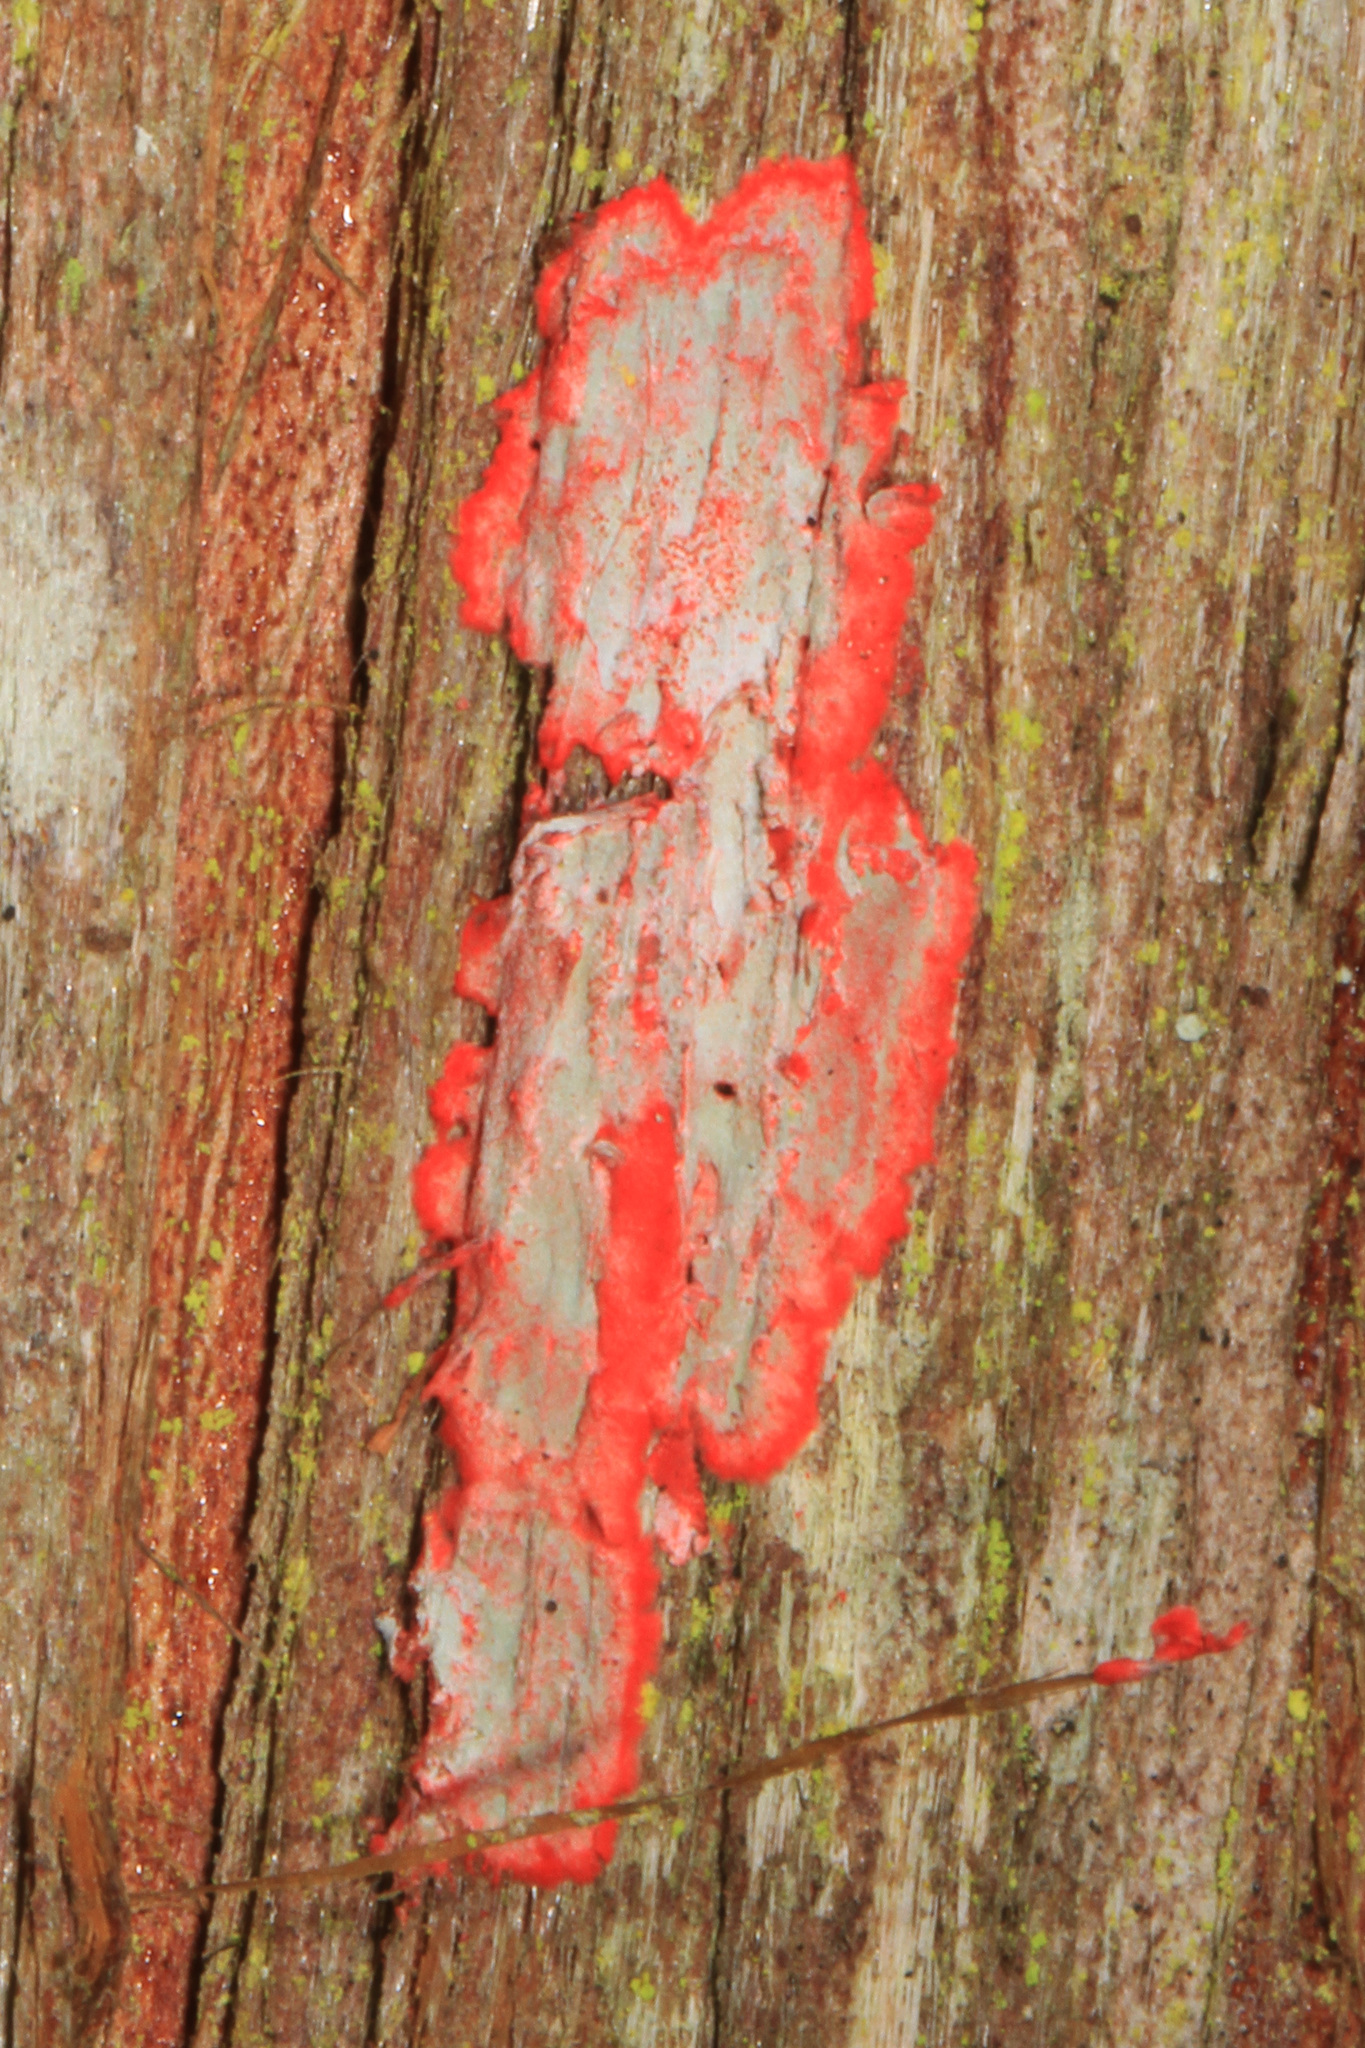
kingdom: Fungi
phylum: Ascomycota
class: Arthoniomycetes
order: Arthoniales
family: Arthoniaceae
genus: Herpothallon
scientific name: Herpothallon rubrocinctum
